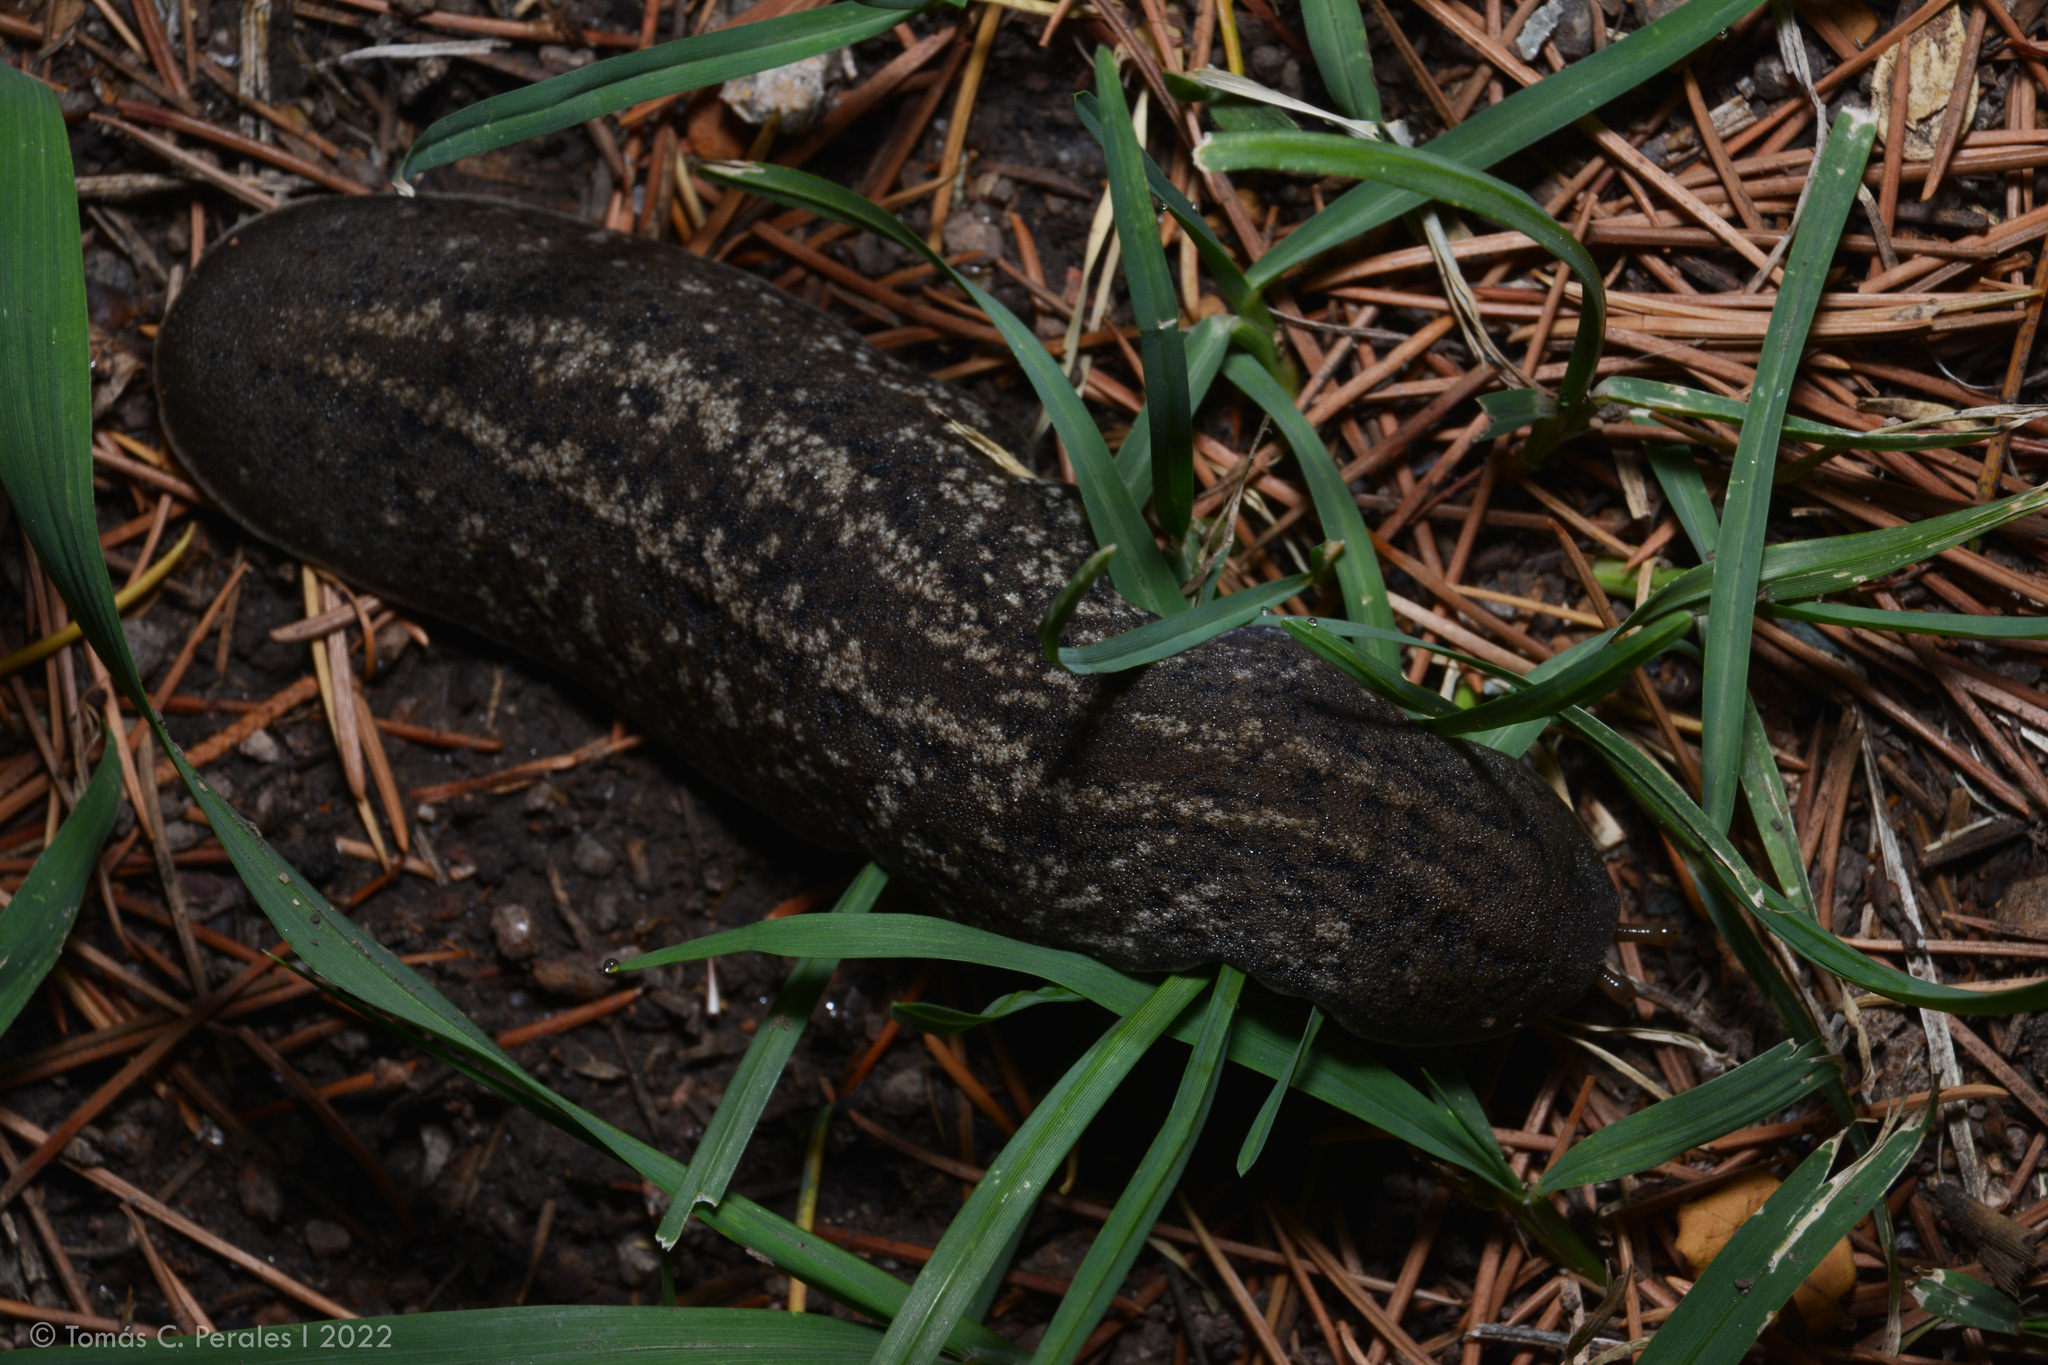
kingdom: Animalia
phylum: Mollusca
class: Gastropoda
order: Systellommatophora
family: Veronicellidae
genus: Phyllocaulis
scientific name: Phyllocaulis soleiformis
